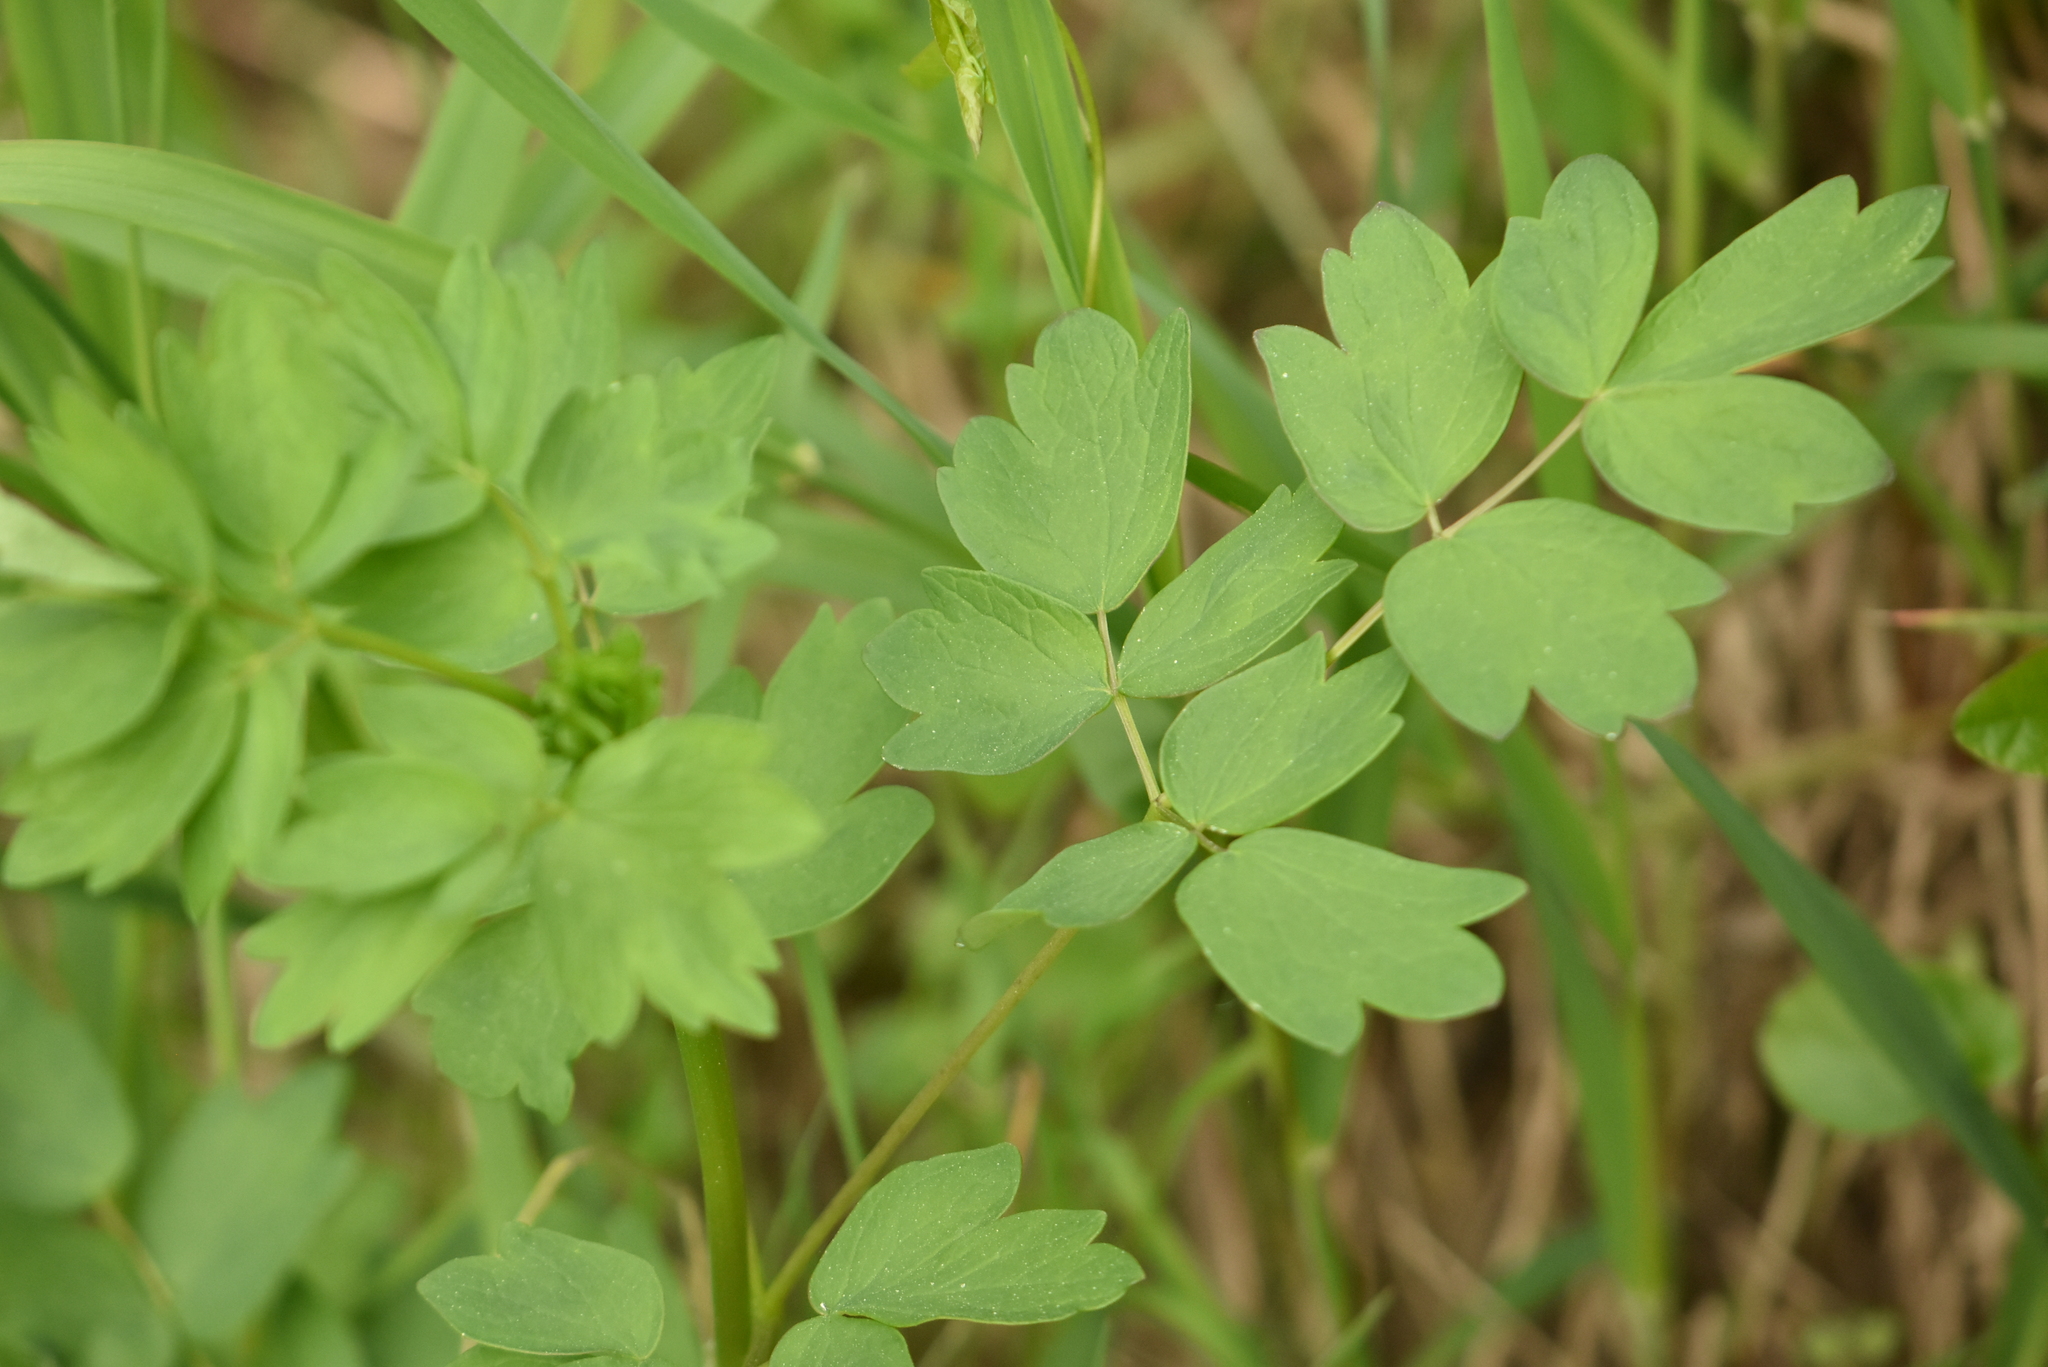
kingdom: Plantae
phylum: Tracheophyta
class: Magnoliopsida
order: Ranunculales
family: Ranunculaceae
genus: Thalictrum
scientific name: Thalictrum minus
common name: Lesser meadow-rue
